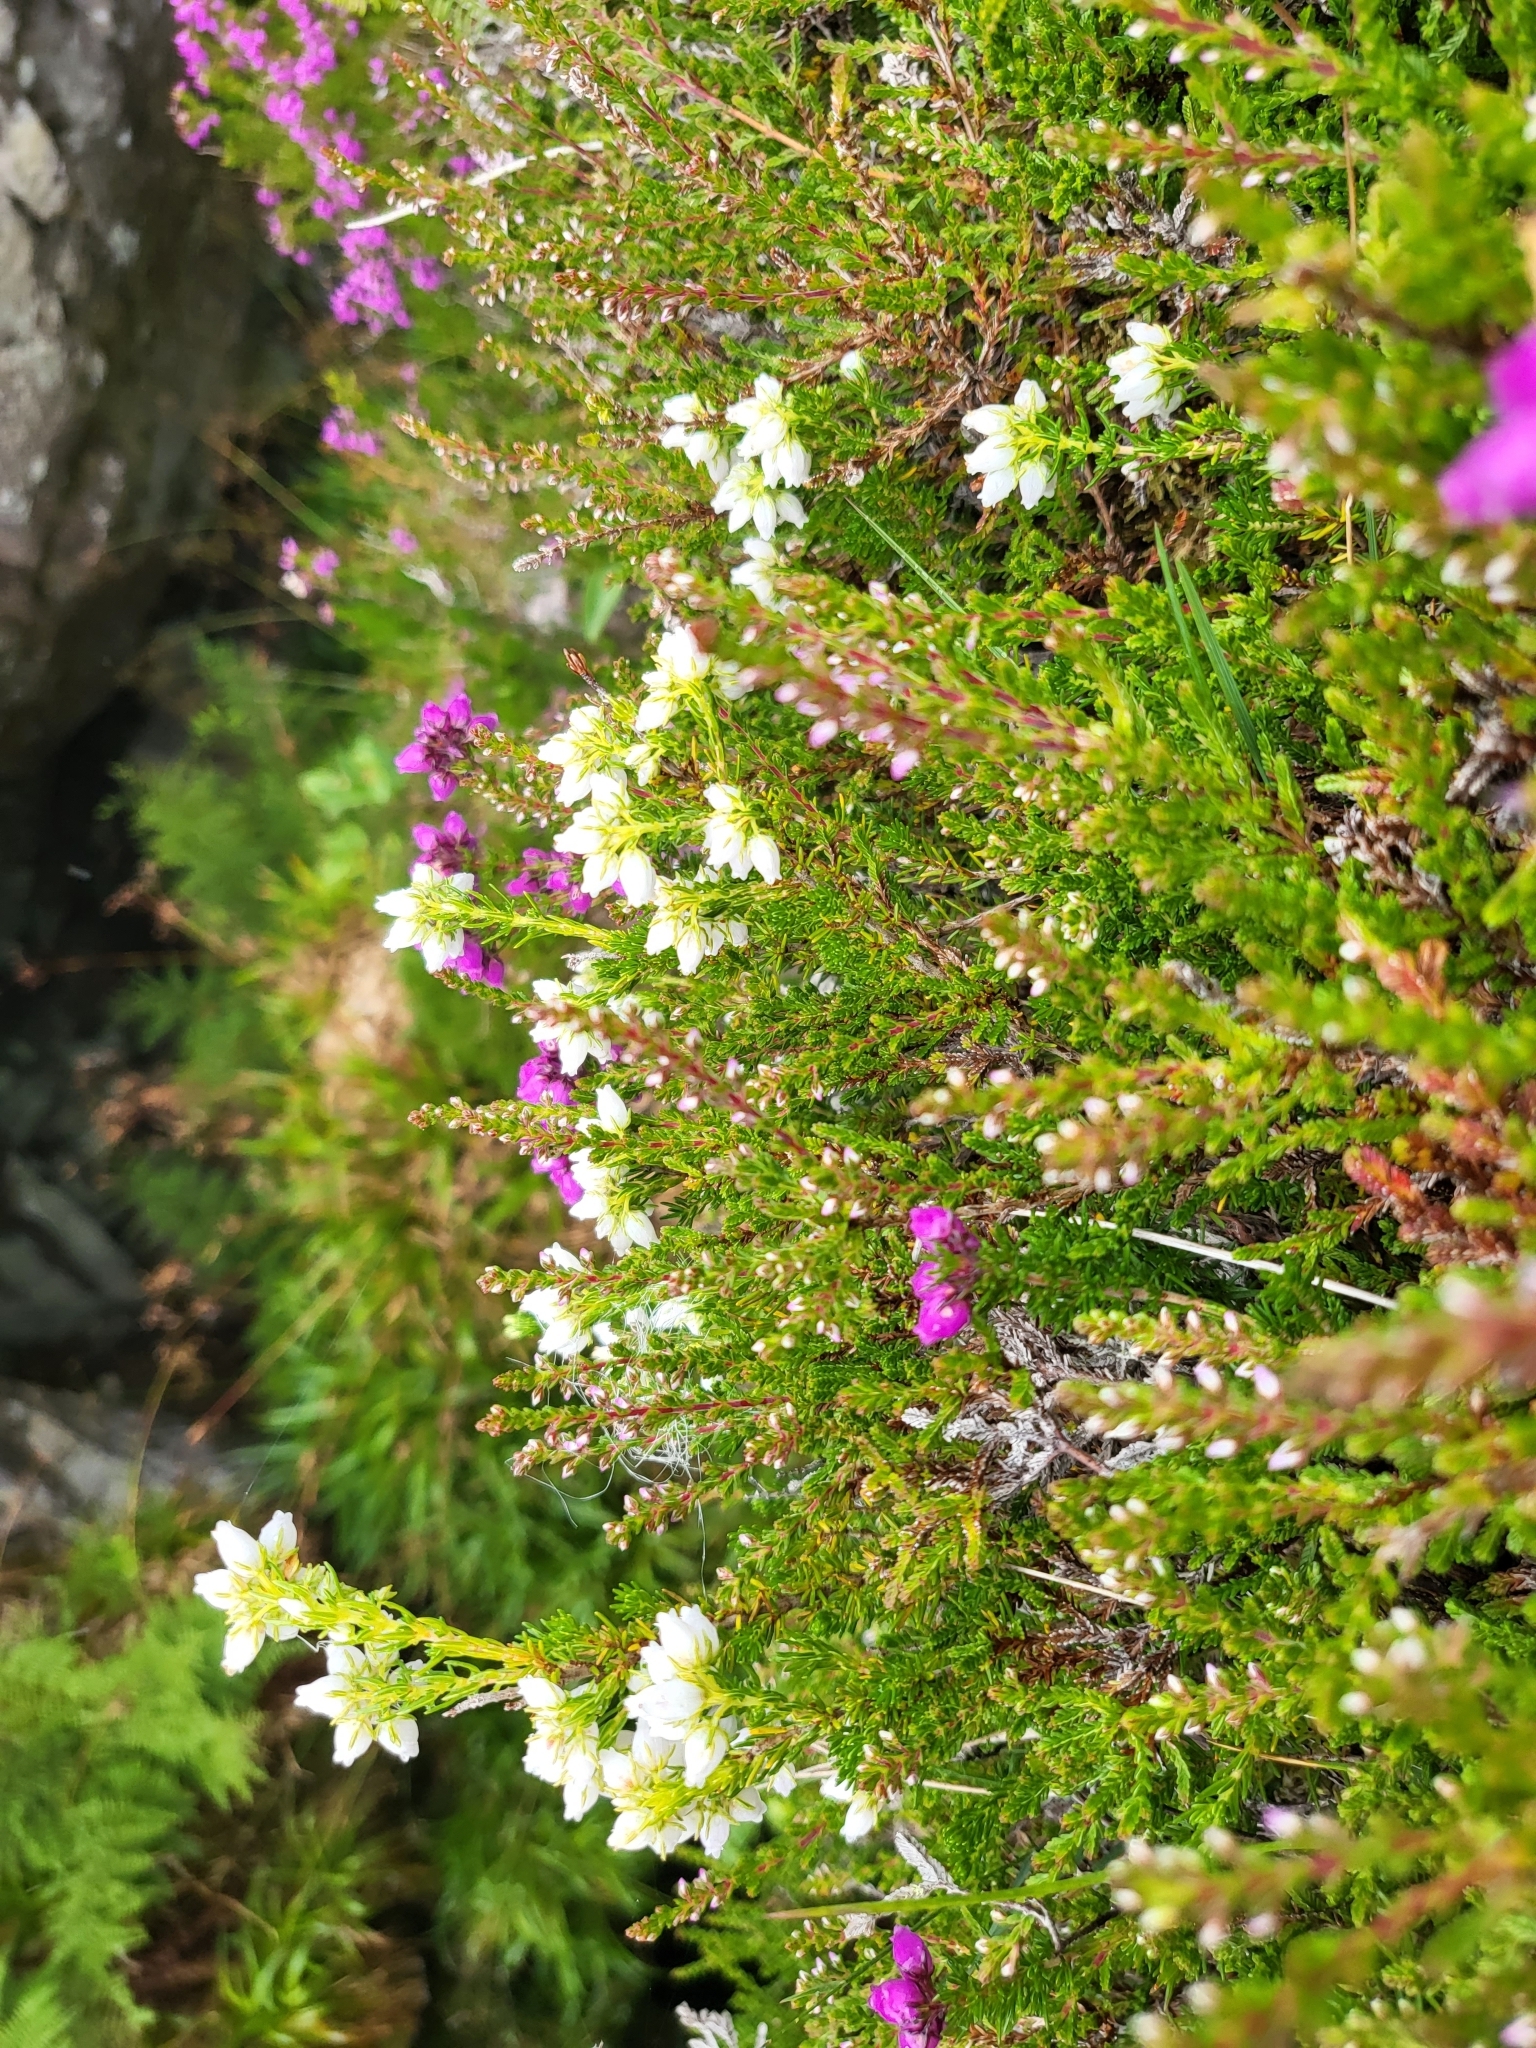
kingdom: Plantae
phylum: Tracheophyta
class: Magnoliopsida
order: Ericales
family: Ericaceae
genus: Erica
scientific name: Erica cinerea
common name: Bell heather
